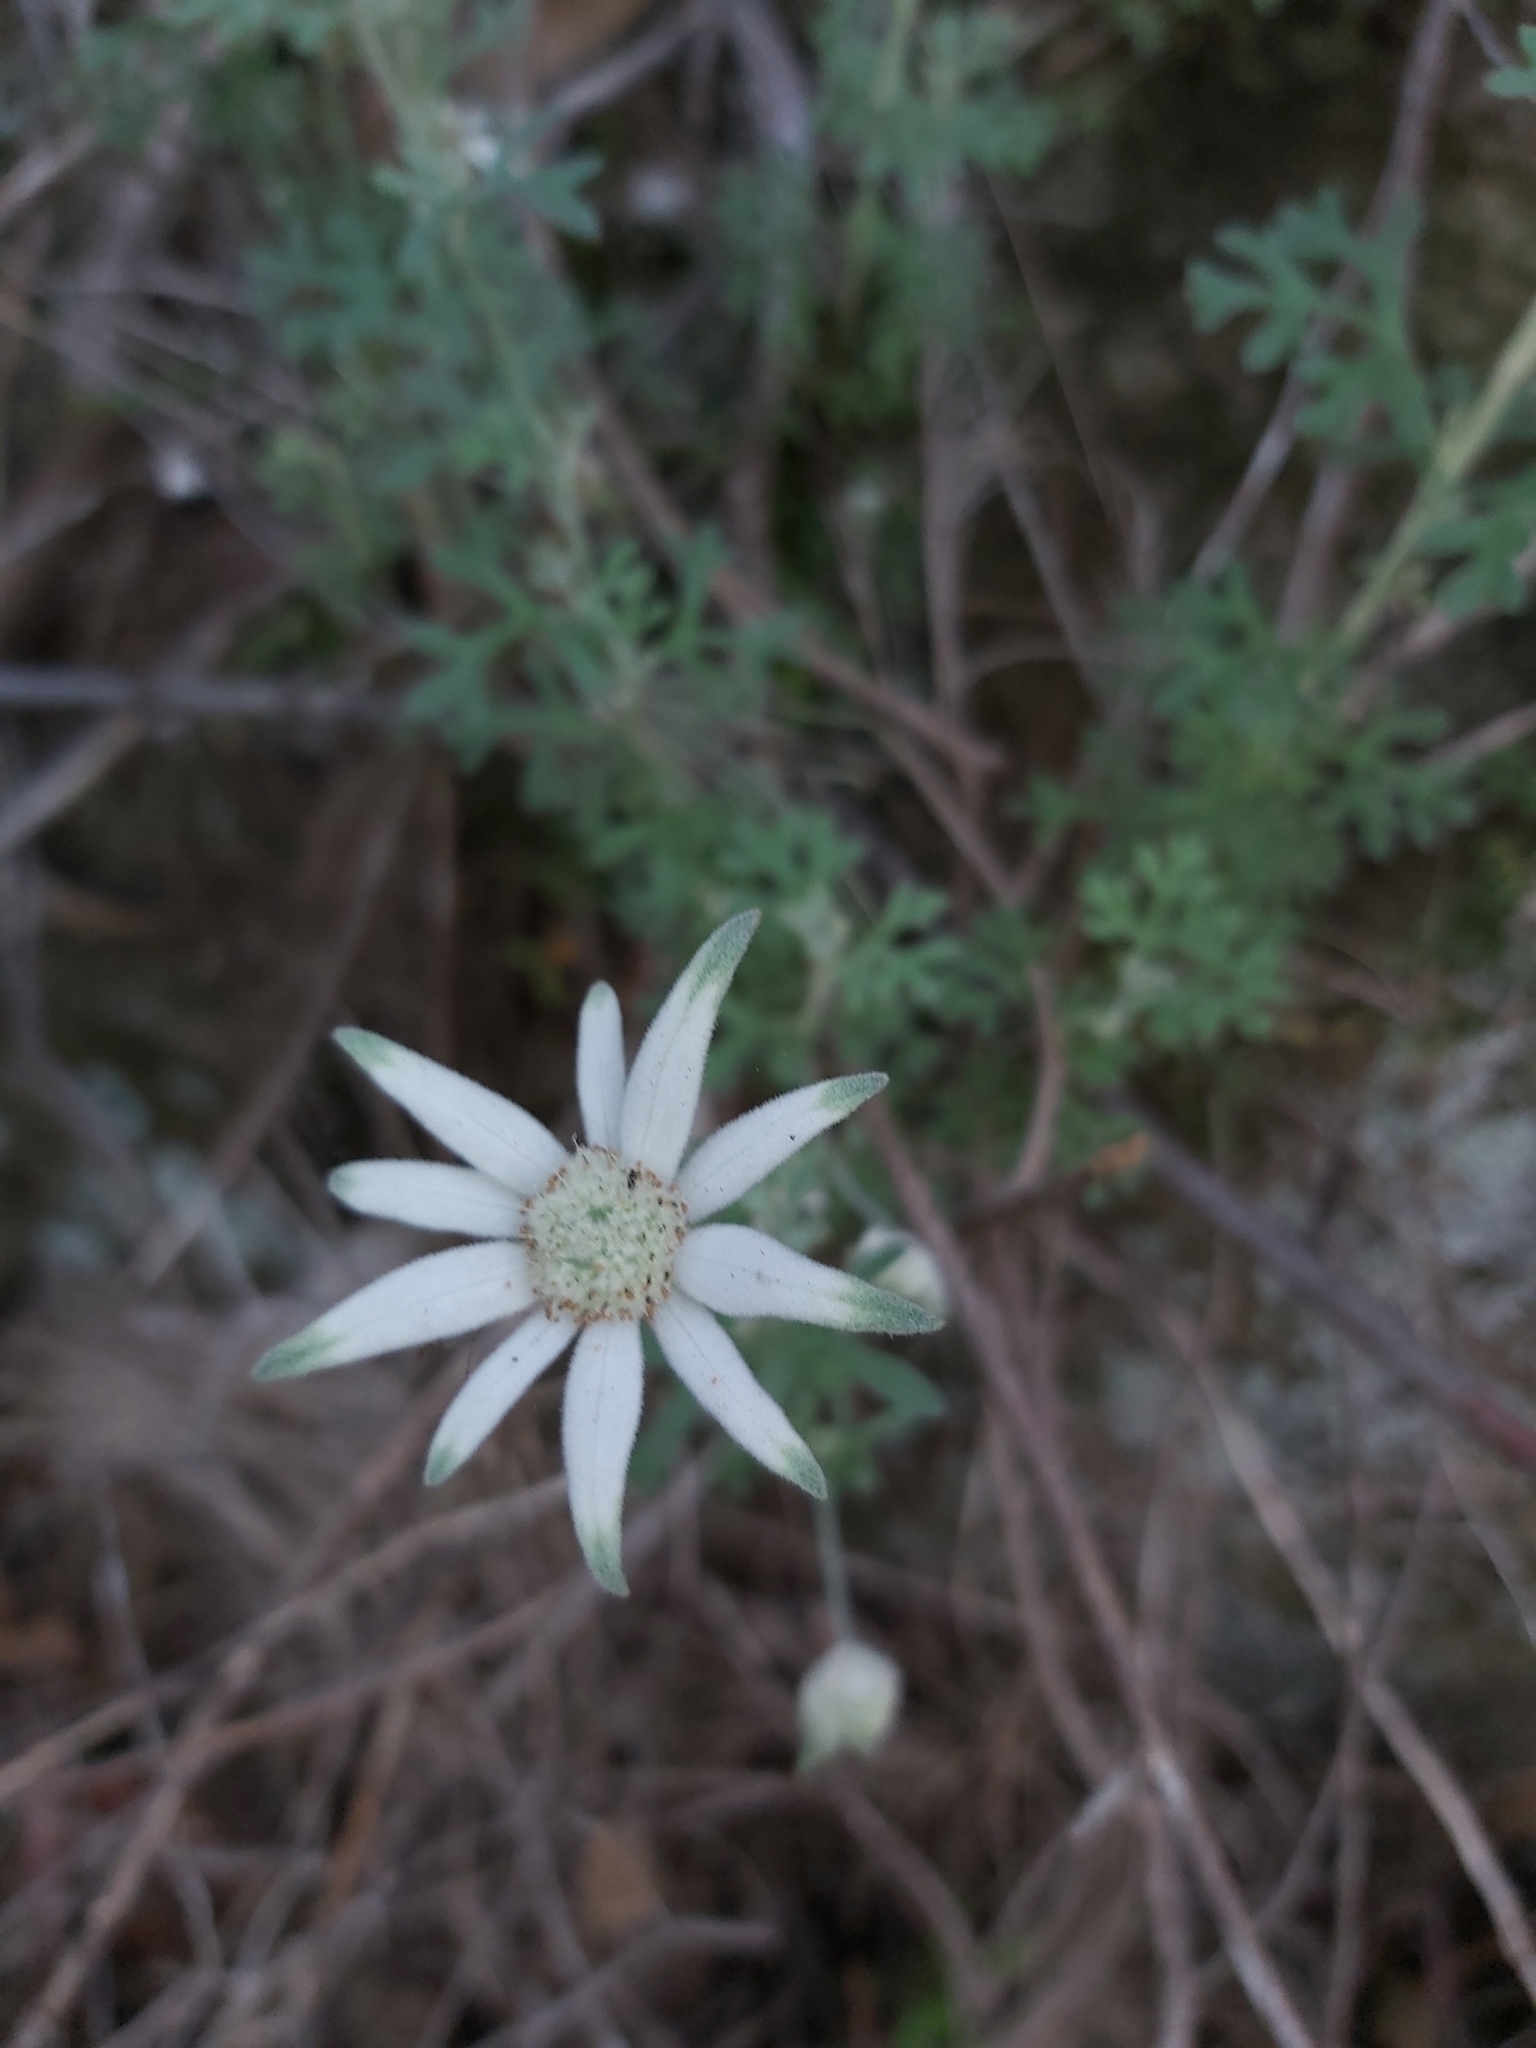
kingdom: Plantae
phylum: Tracheophyta
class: Magnoliopsida
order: Apiales
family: Apiaceae
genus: Actinotus
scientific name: Actinotus helianthi
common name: Flannel-flower
